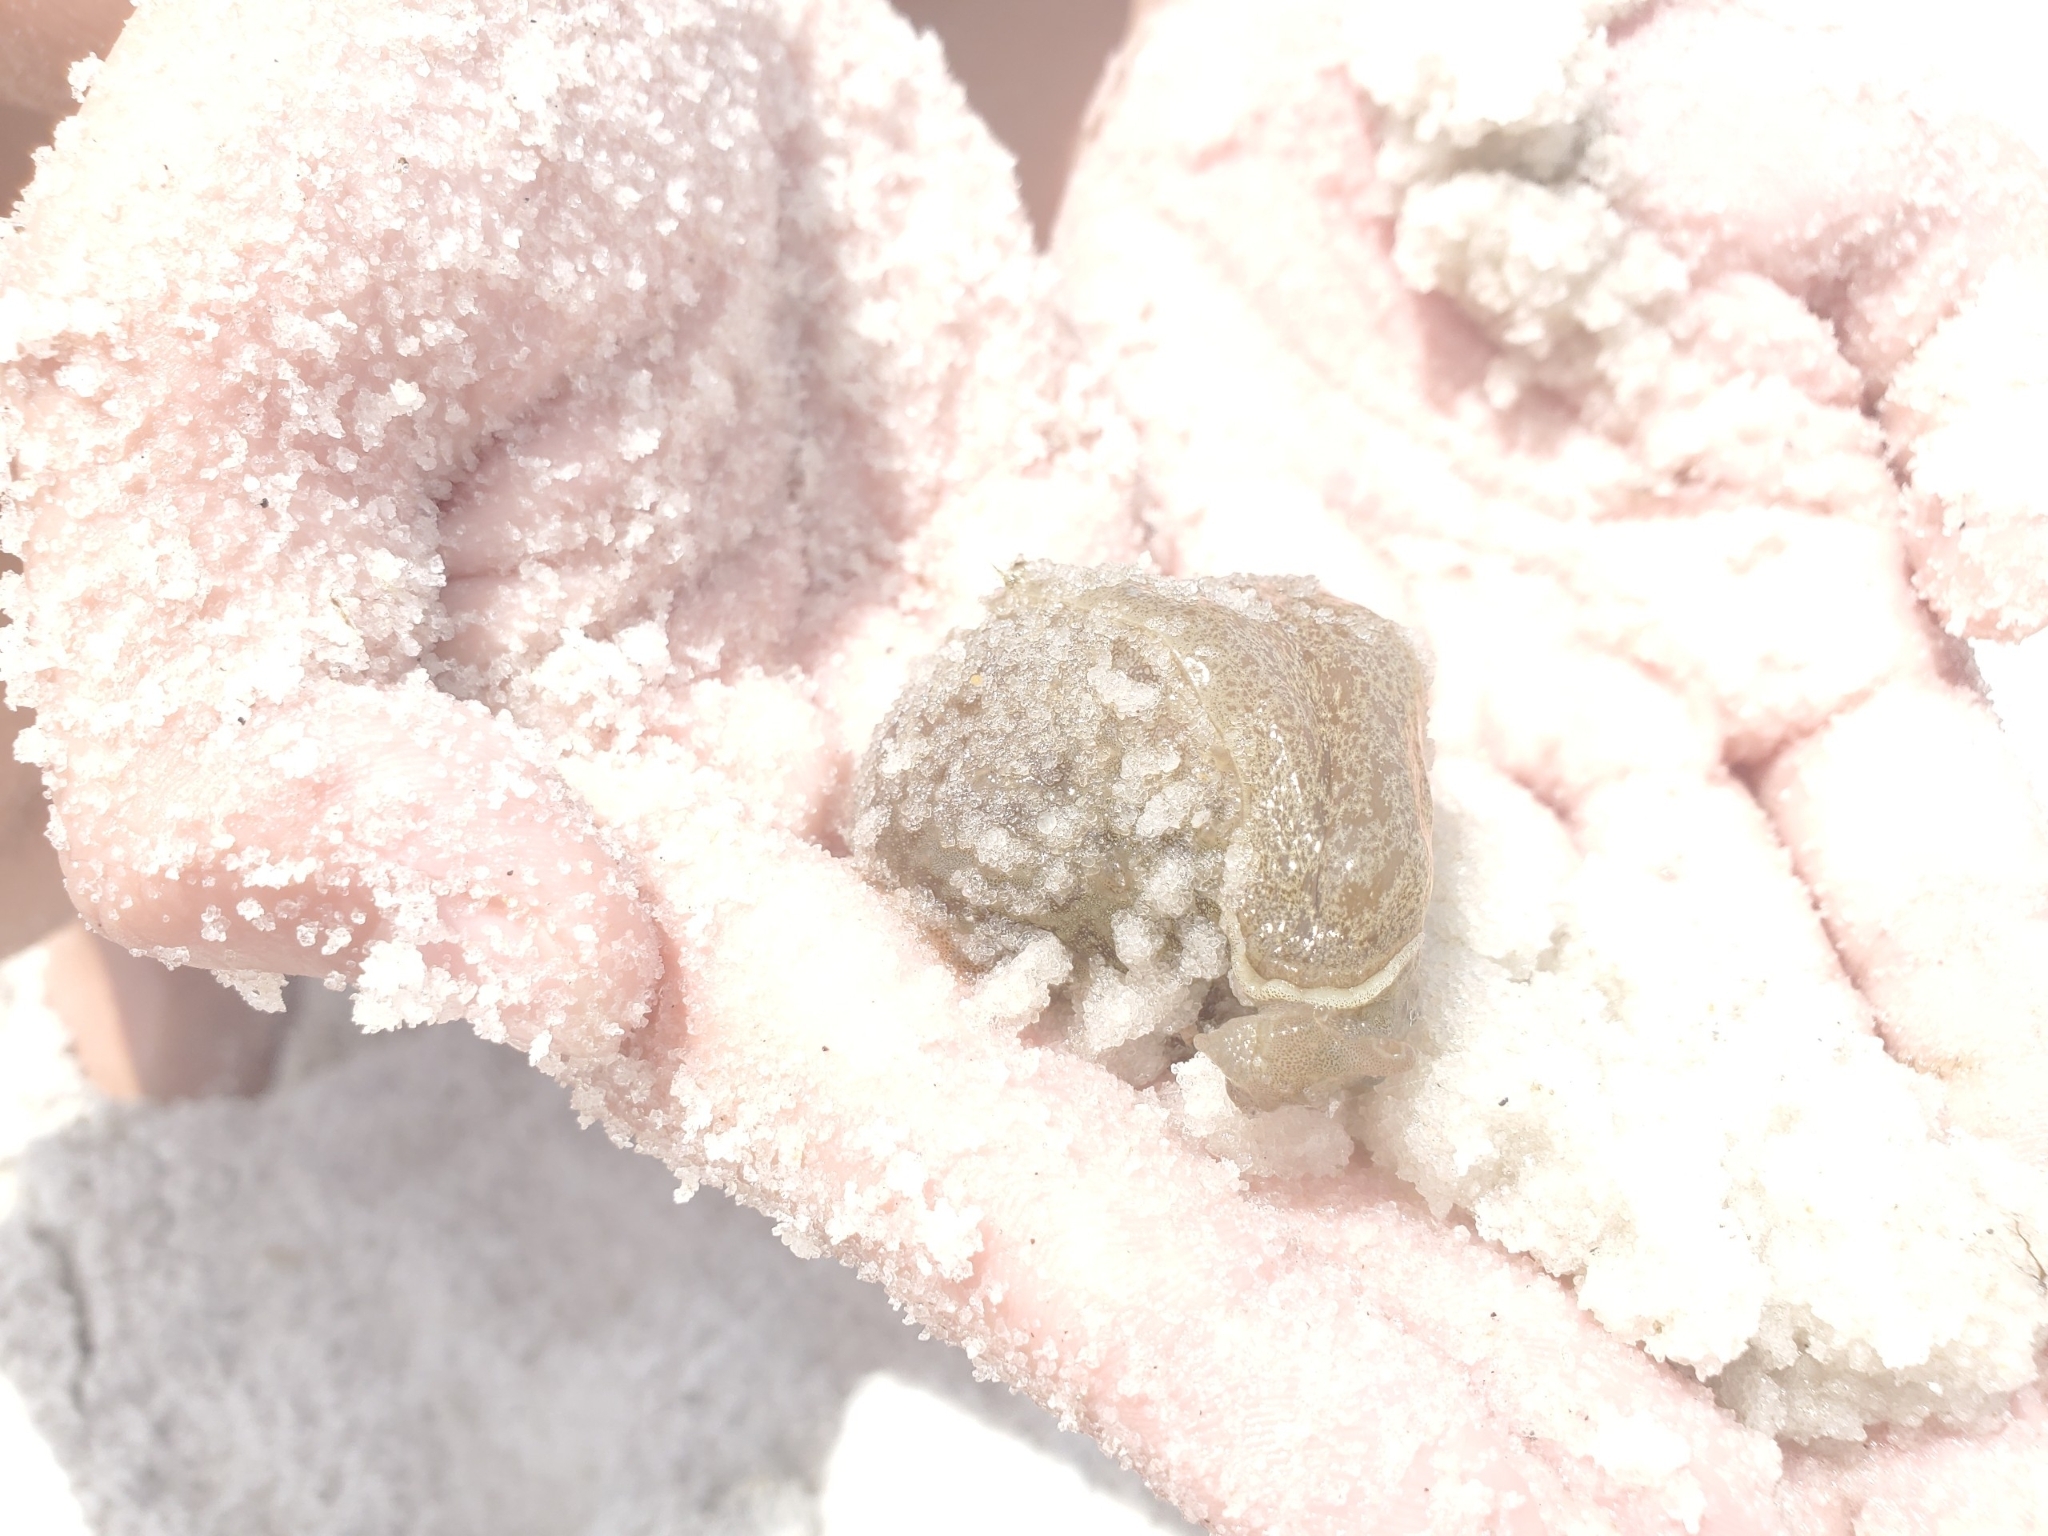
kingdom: Animalia
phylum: Mollusca
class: Gastropoda
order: Aplysiida
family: Aplysiidae
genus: Bursatella
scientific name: Bursatella leachii
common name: Shaggy sea hare
